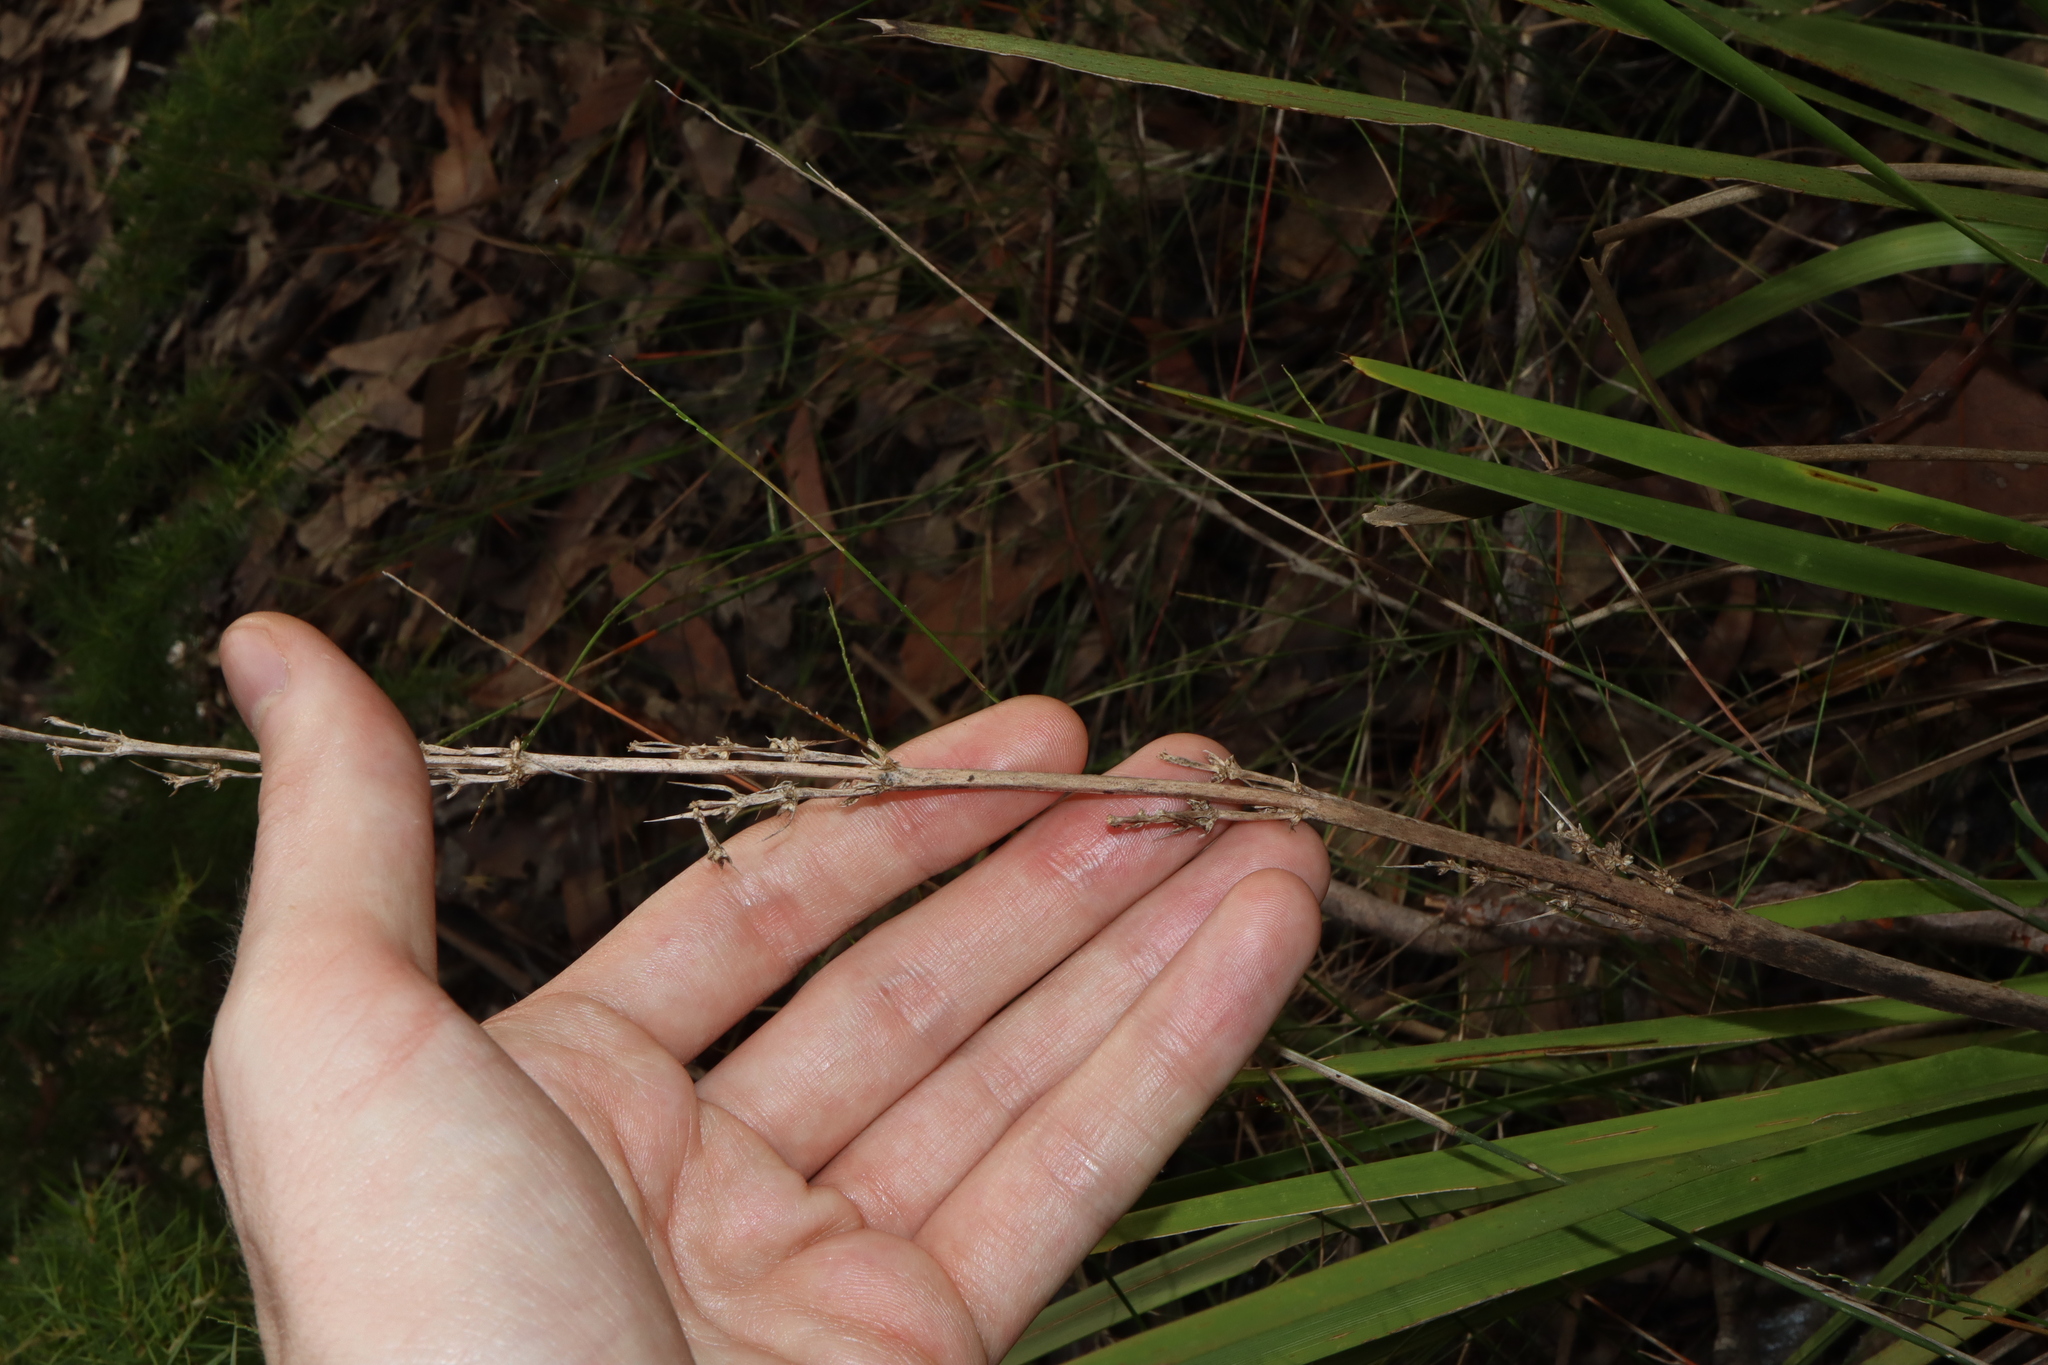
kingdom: Plantae
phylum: Tracheophyta
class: Liliopsida
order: Asparagales
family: Asparagaceae
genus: Lomandra
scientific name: Lomandra longifolia
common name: Longleaf mat-rush
